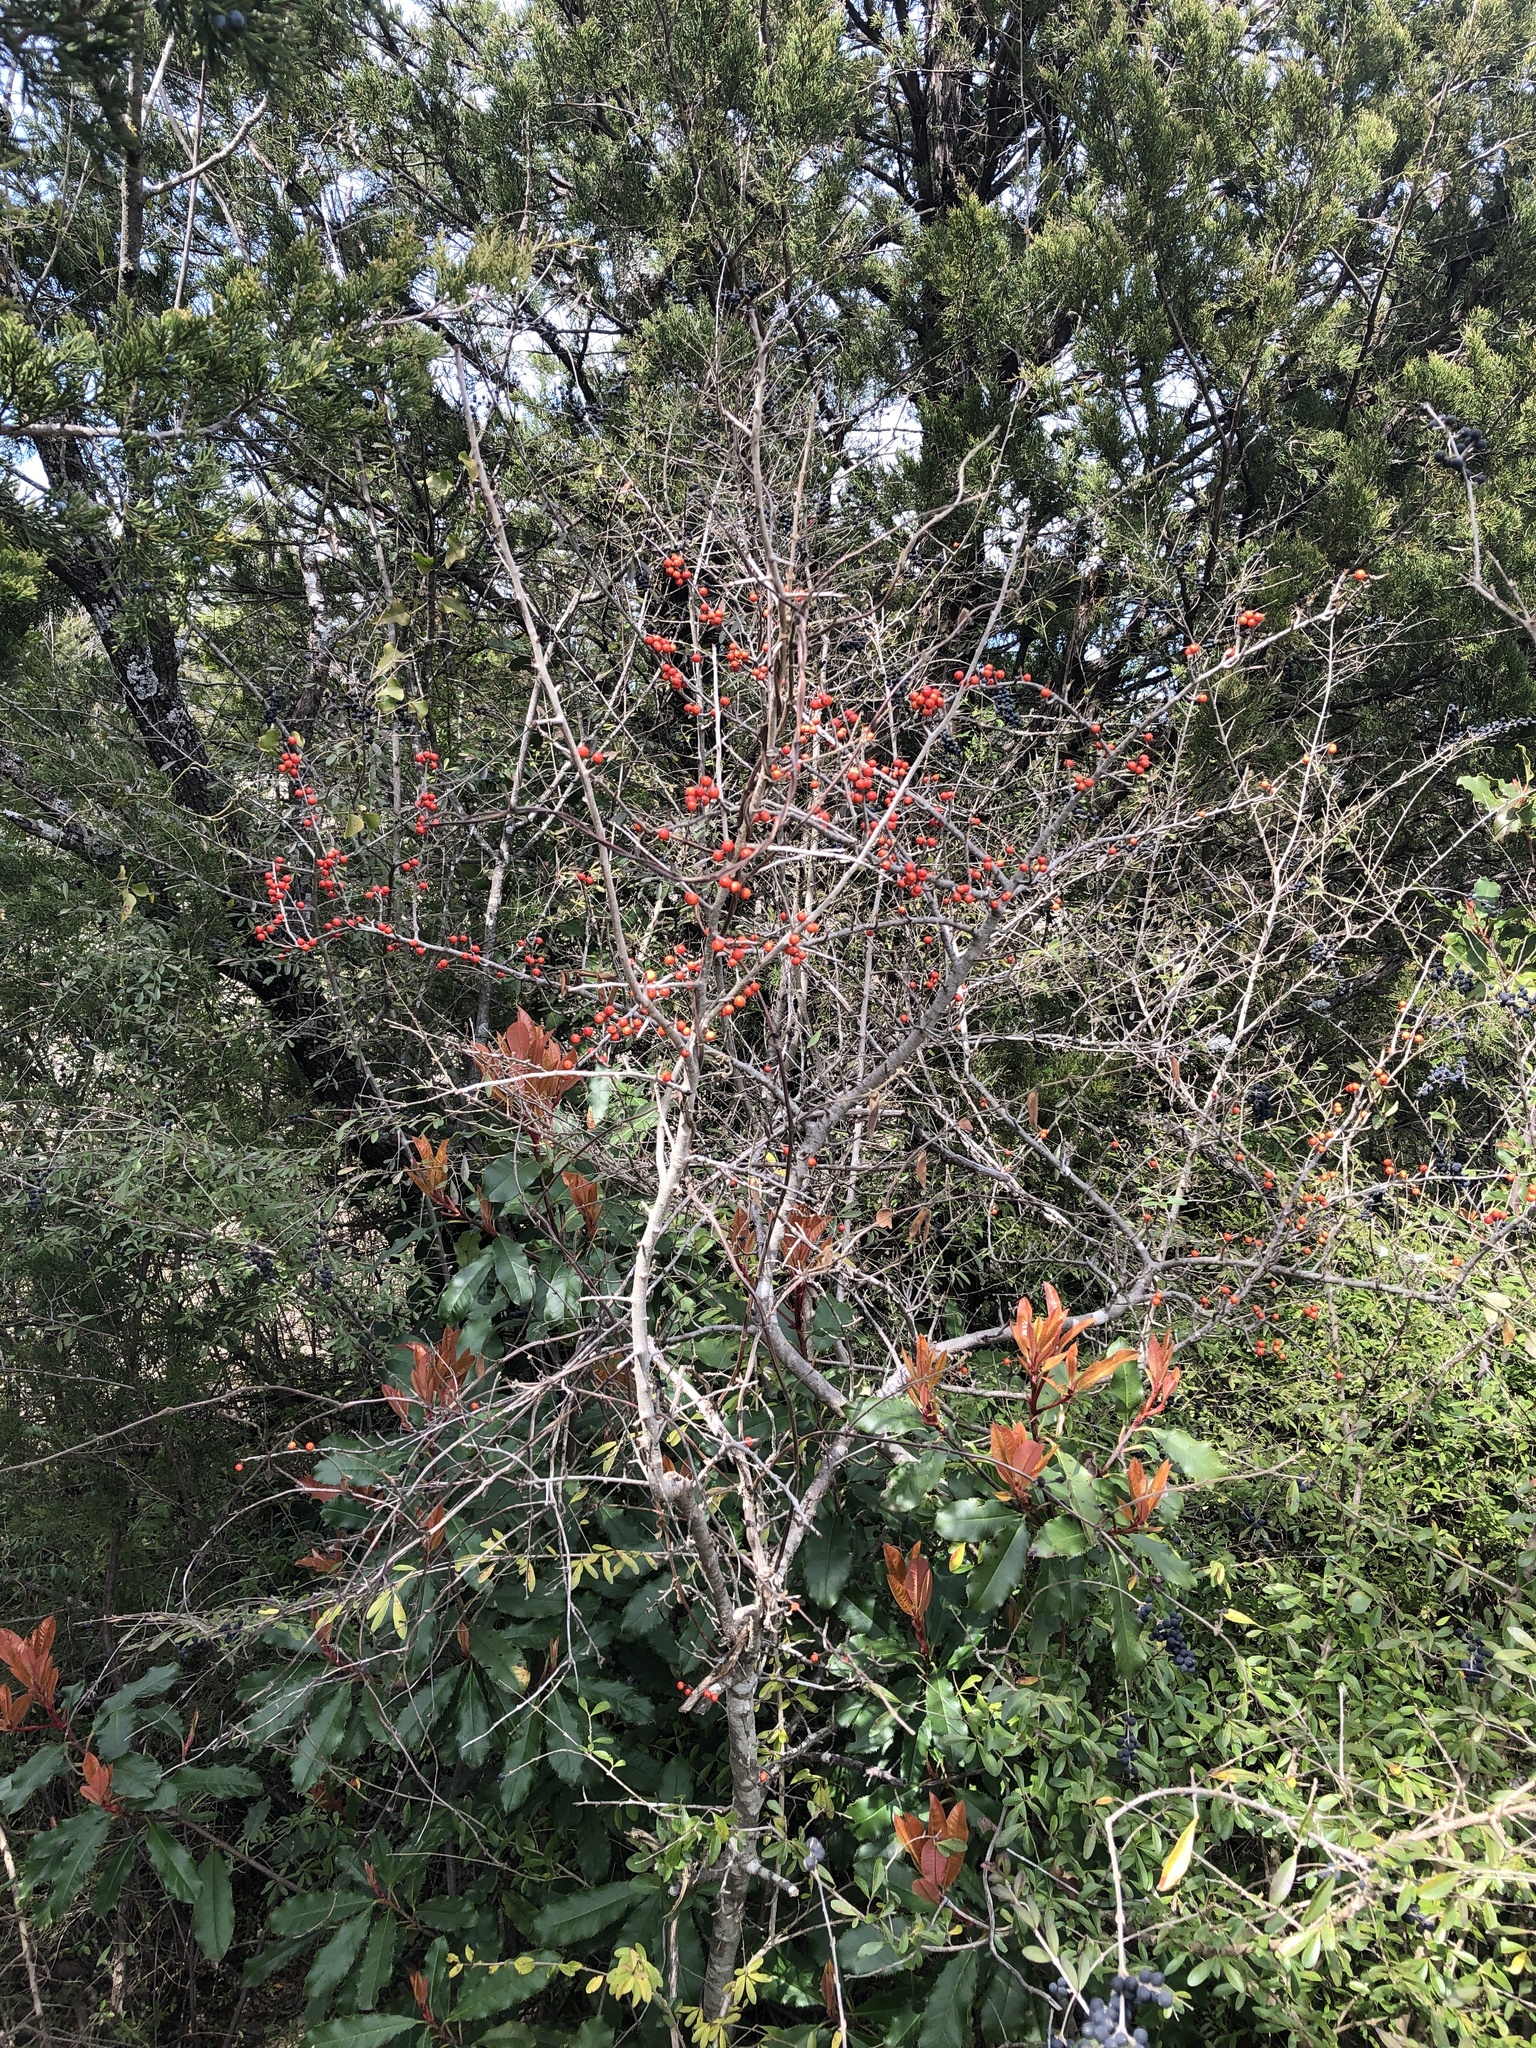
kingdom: Plantae
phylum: Tracheophyta
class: Magnoliopsida
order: Aquifoliales
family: Aquifoliaceae
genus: Ilex
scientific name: Ilex decidua
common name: Possum-haw
